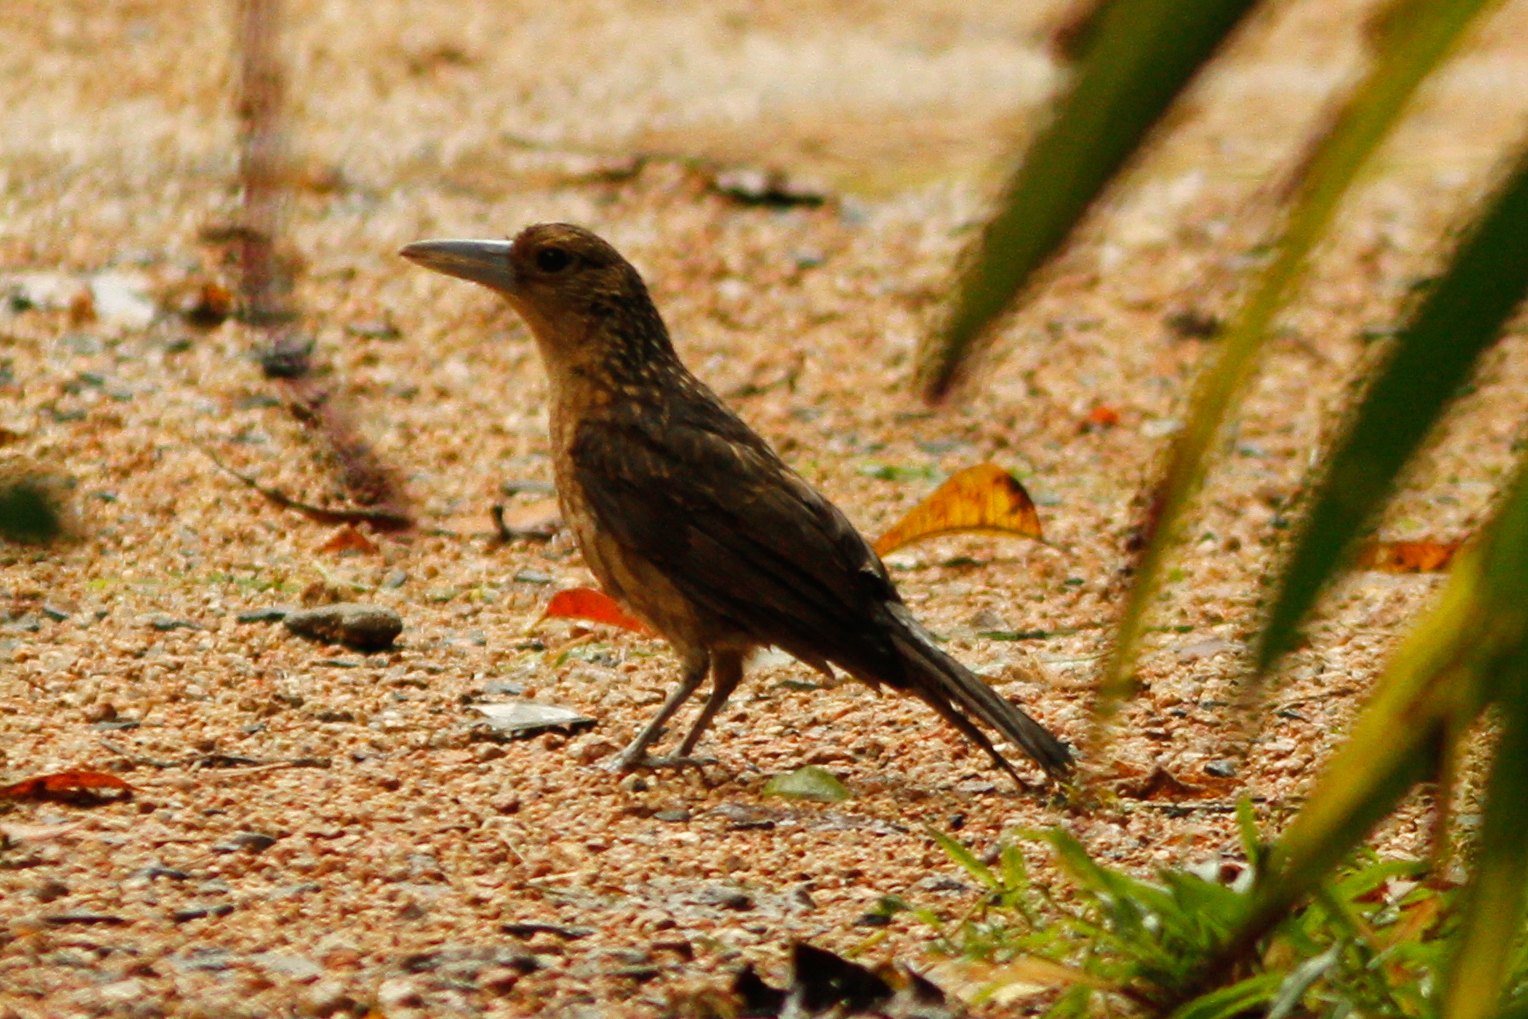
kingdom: Animalia
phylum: Chordata
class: Aves
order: Passeriformes
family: Artamidae
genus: Melloria
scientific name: Melloria quoyi
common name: Black butcherbird
